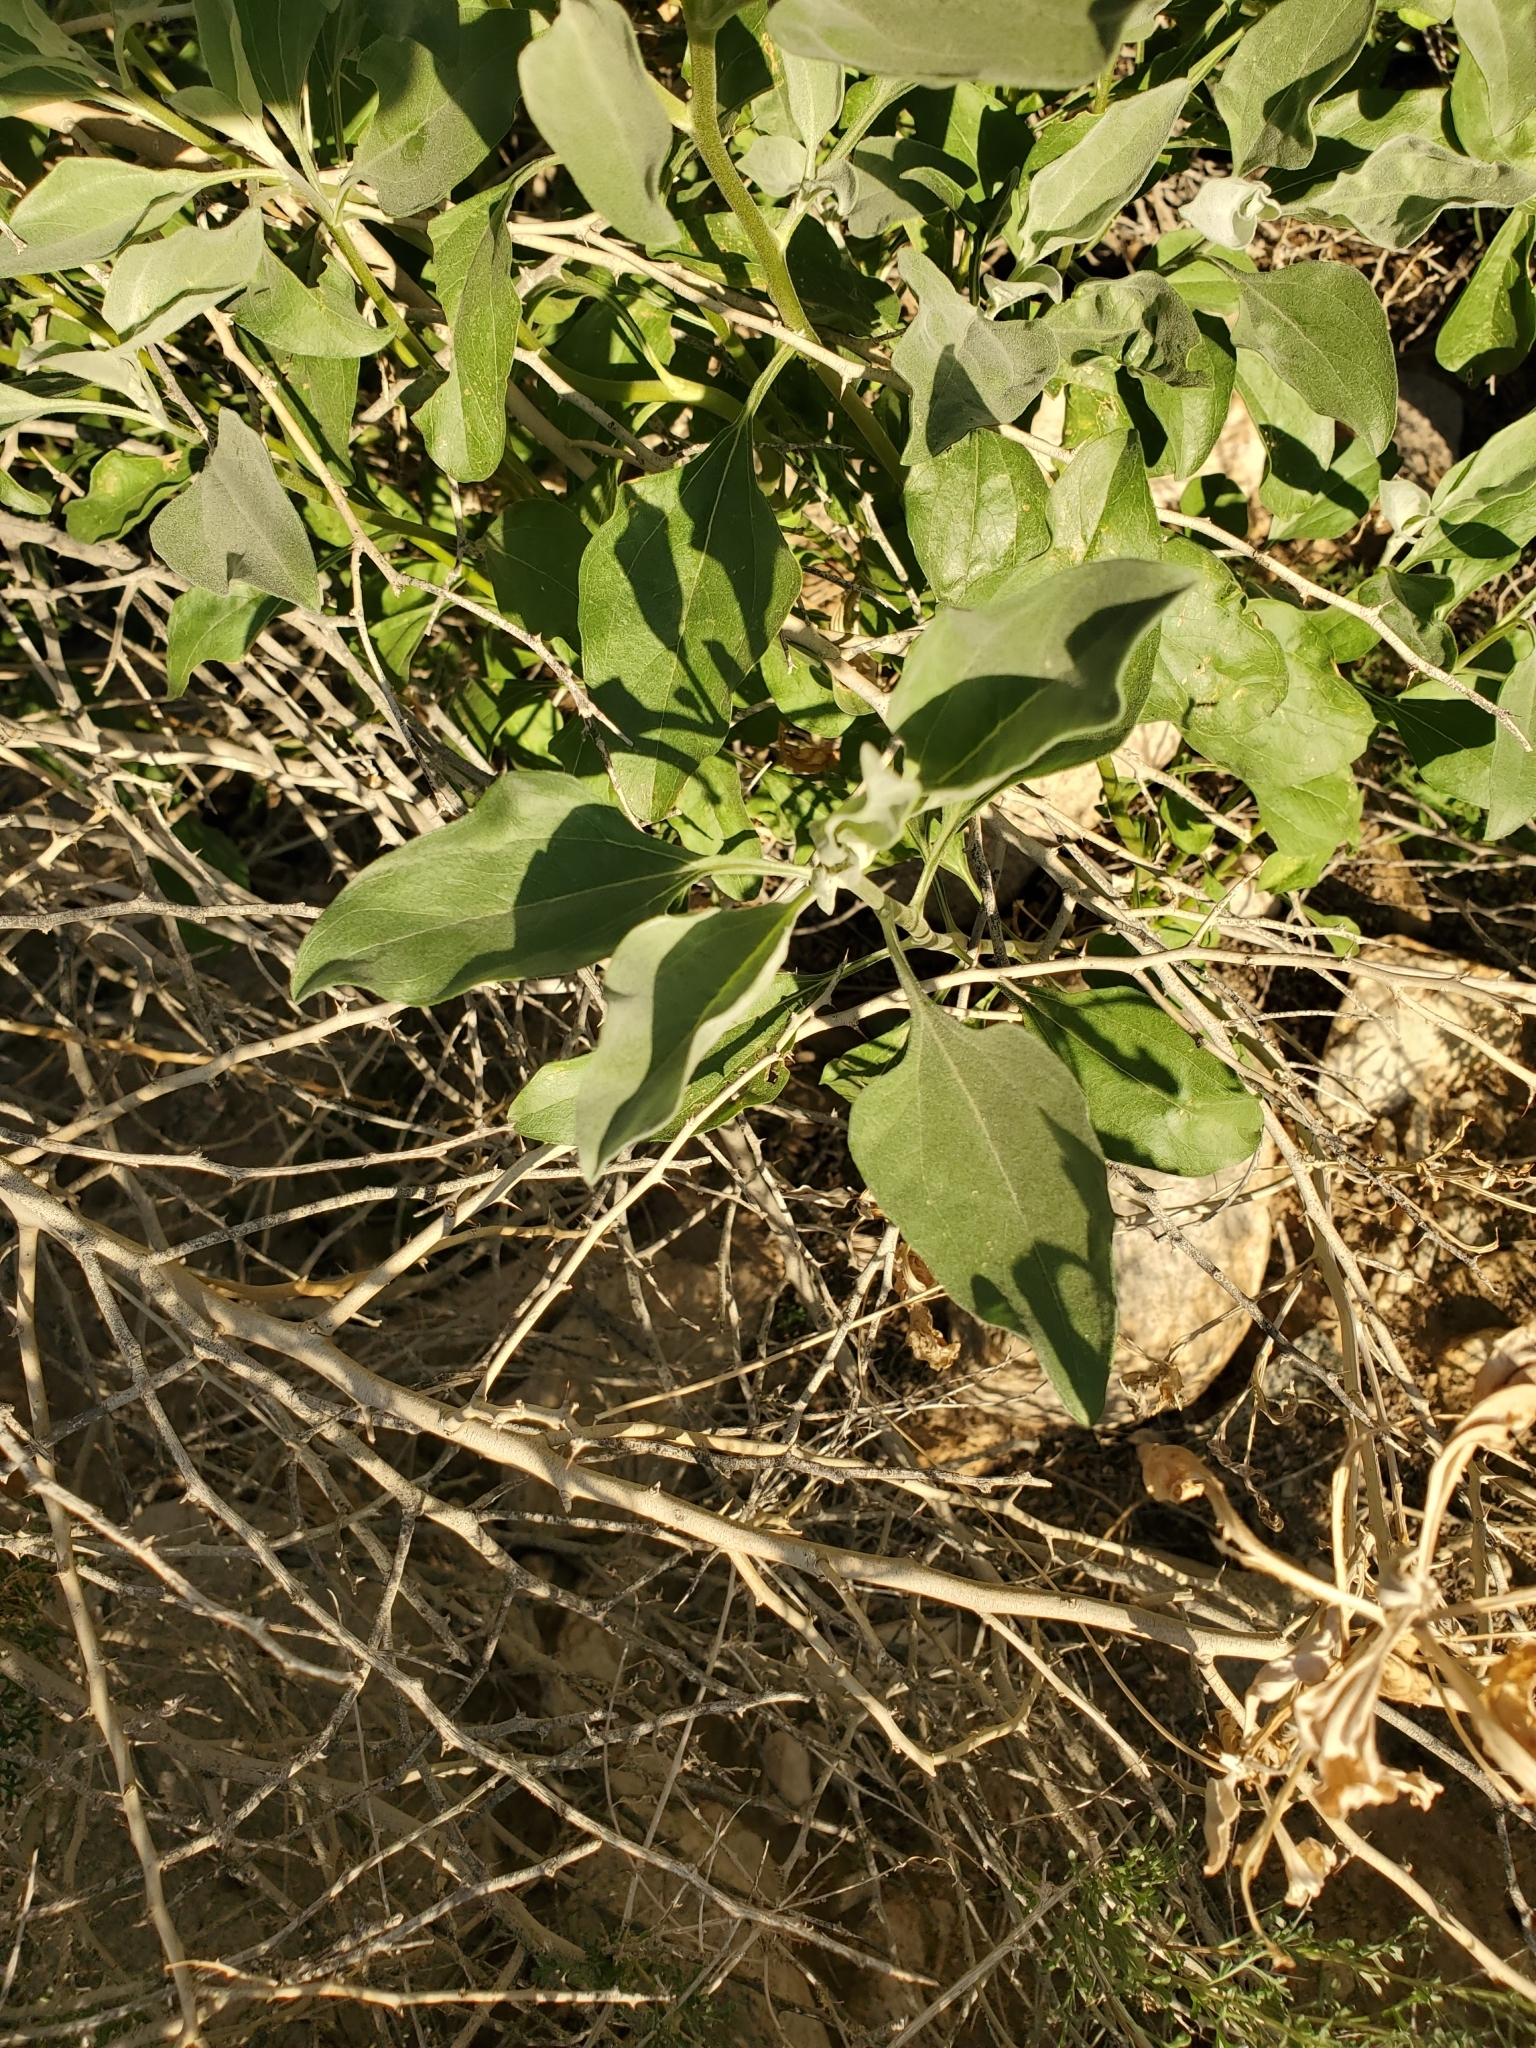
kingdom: Plantae
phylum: Tracheophyta
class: Magnoliopsida
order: Asterales
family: Asteraceae
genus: Encelia
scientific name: Encelia farinosa
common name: Brittlebush
